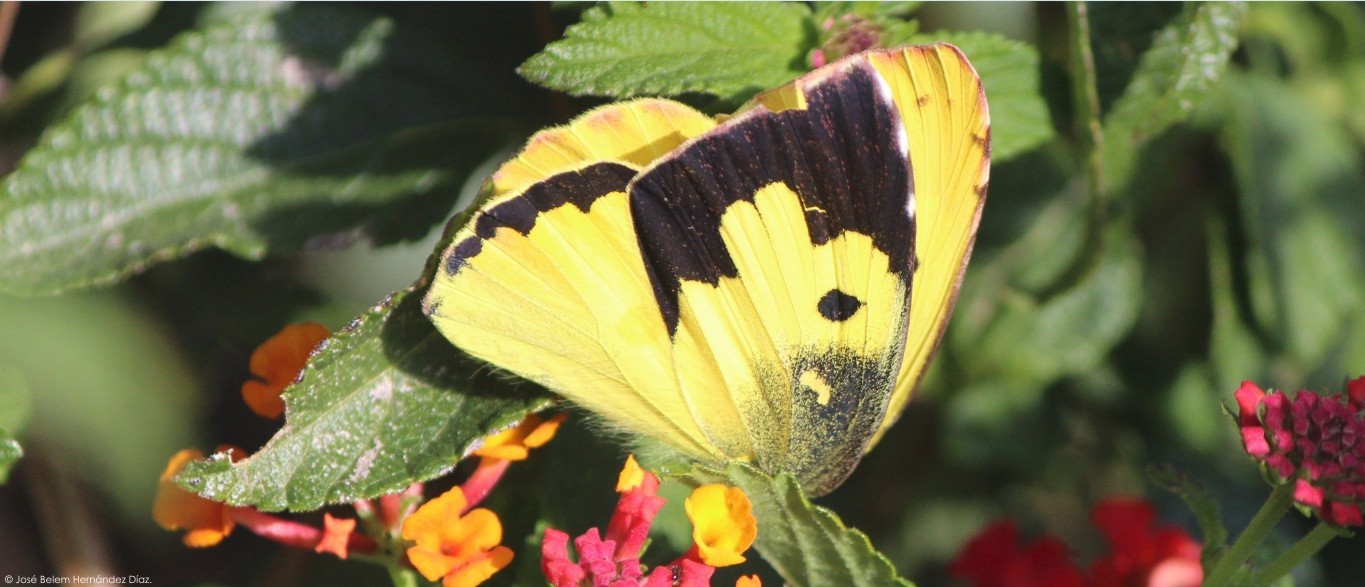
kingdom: Animalia
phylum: Arthropoda
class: Insecta
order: Lepidoptera
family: Pieridae
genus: Zerene
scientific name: Zerene cesonia
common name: Southern dogface
